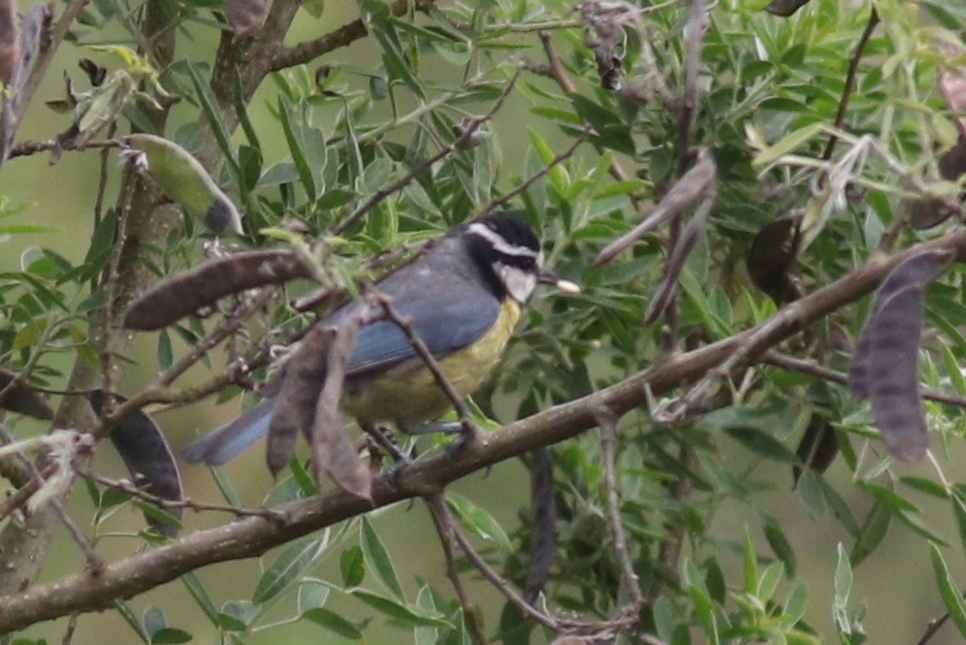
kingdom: Animalia
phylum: Chordata
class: Aves
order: Passeriformes
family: Paridae
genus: Cyanistes
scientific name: Cyanistes teneriffae
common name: African blue tit
